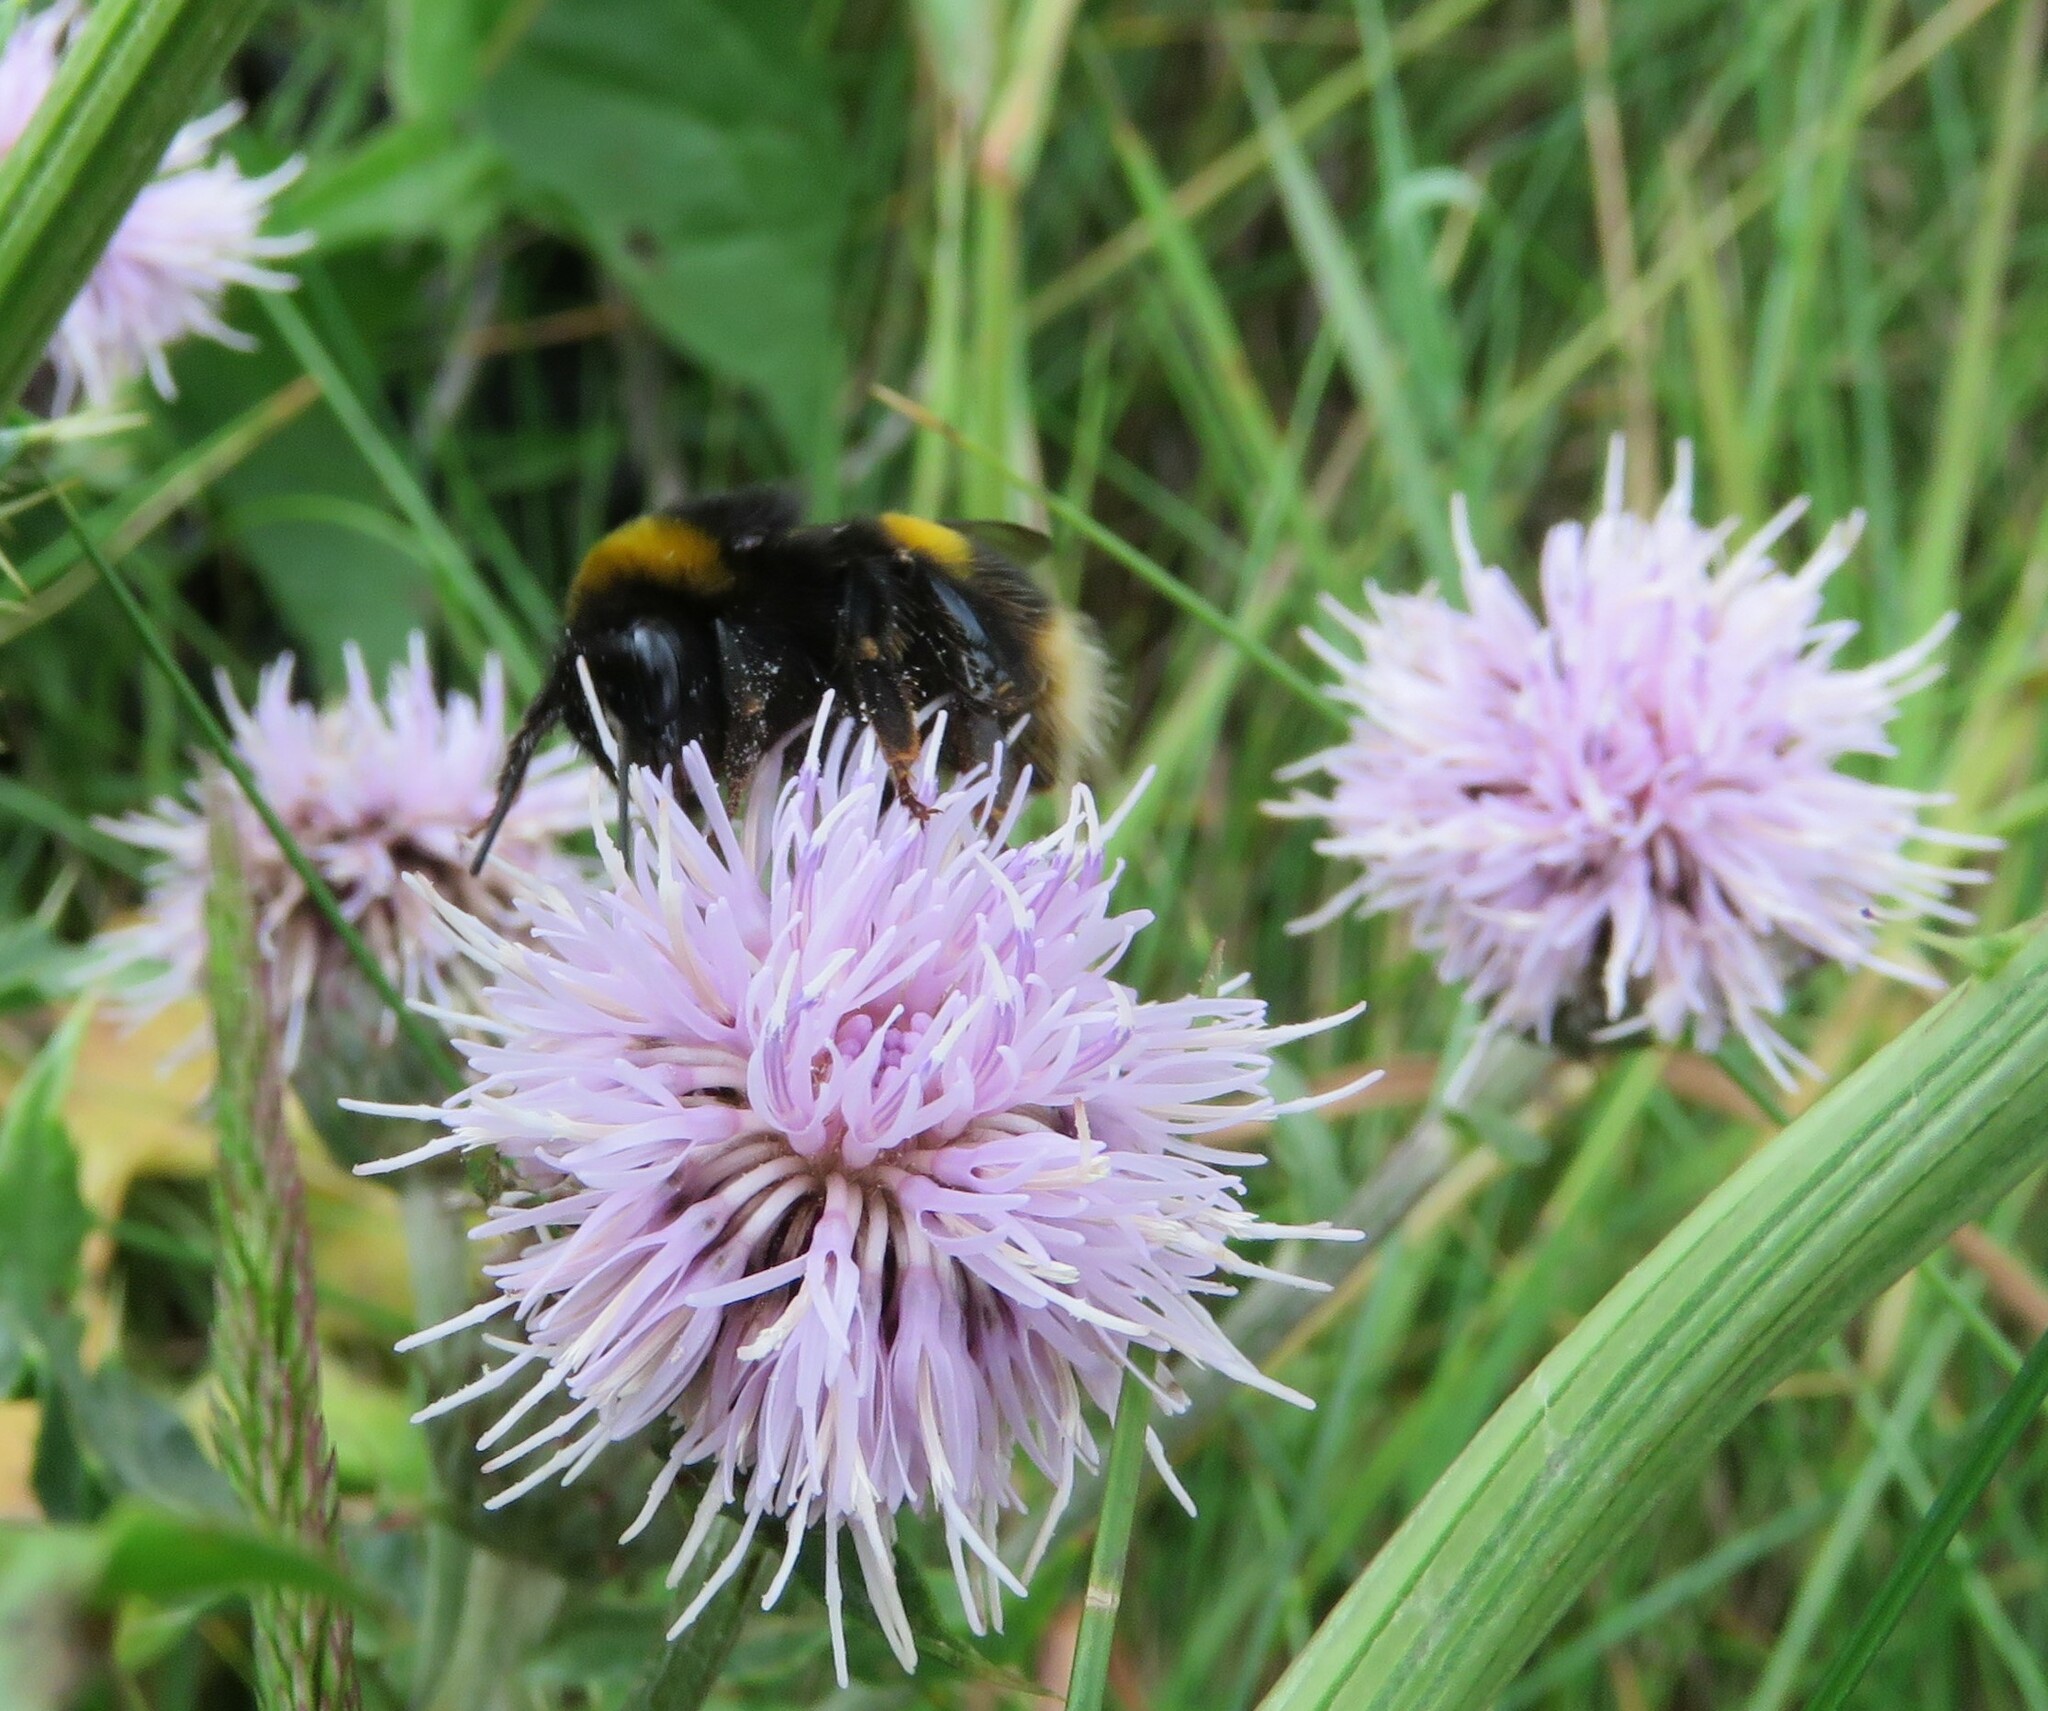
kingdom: Animalia
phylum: Arthropoda
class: Insecta
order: Hymenoptera
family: Apidae
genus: Bombus
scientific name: Bombus terrestris
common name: Buff-tailed bumblebee
